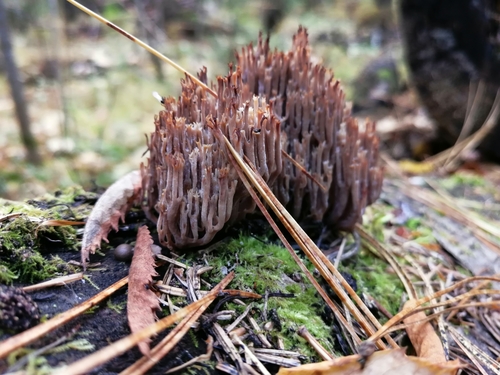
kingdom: Fungi
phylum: Basidiomycota
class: Agaricomycetes
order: Russulales
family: Auriscalpiaceae
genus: Artomyces
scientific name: Artomyces pyxidatus
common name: Crown-tipped coral fungus
